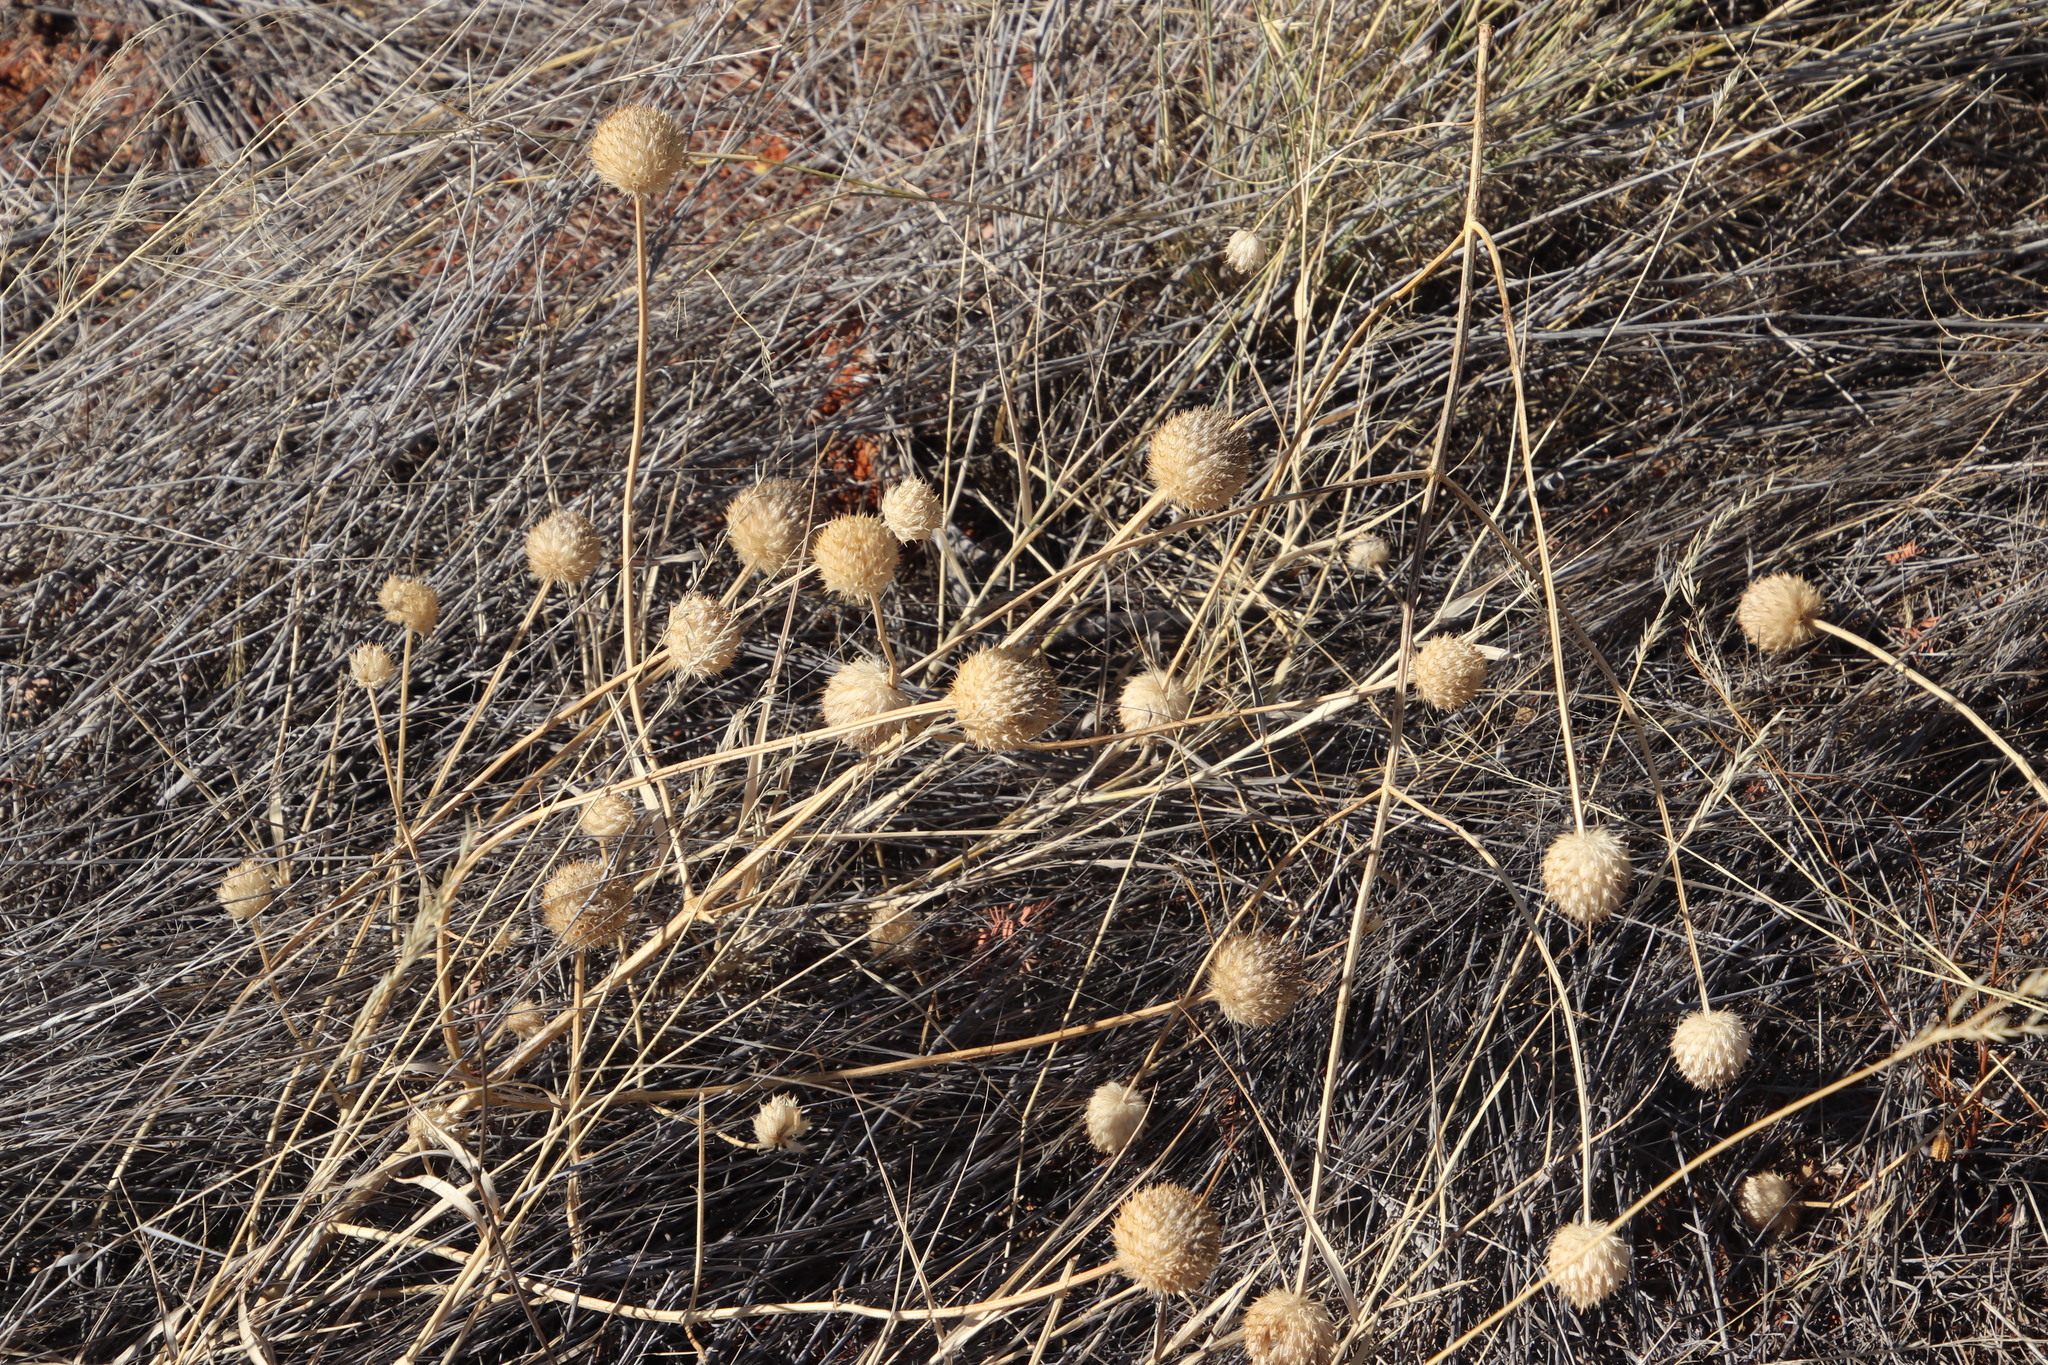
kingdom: Plantae
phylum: Tracheophyta
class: Magnoliopsida
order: Lamiales
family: Lamiaceae
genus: Acrotome
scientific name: Acrotome inflata
